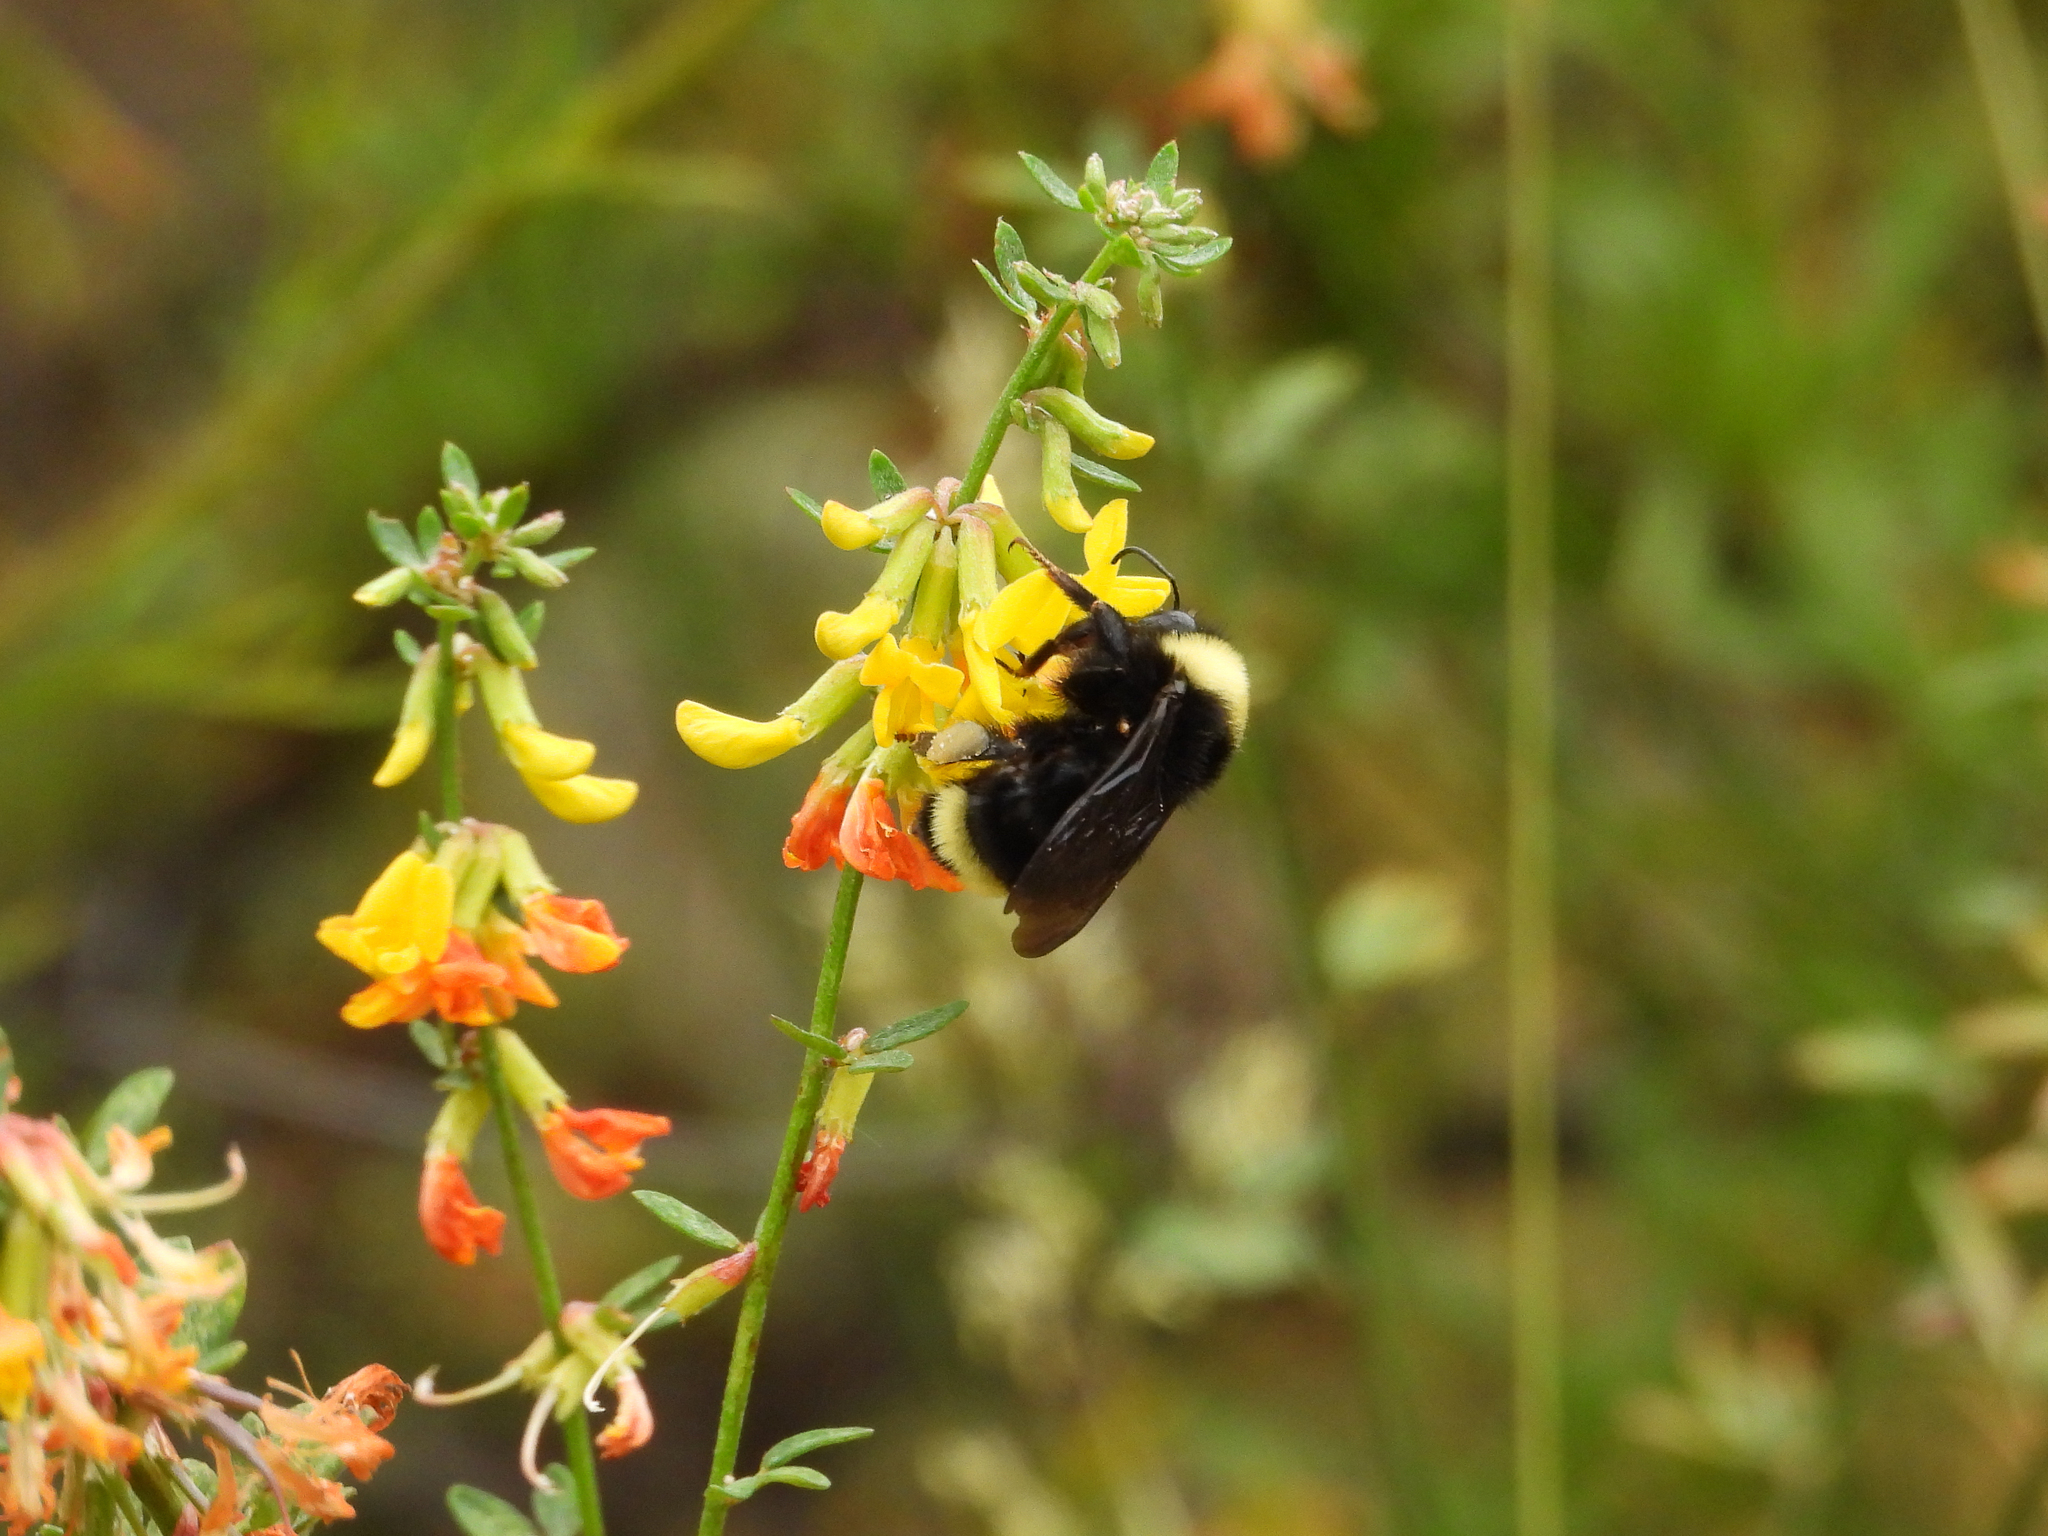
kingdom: Animalia
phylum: Arthropoda
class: Insecta
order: Hymenoptera
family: Apidae
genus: Bombus
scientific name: Bombus californicus
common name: California bumble bee
